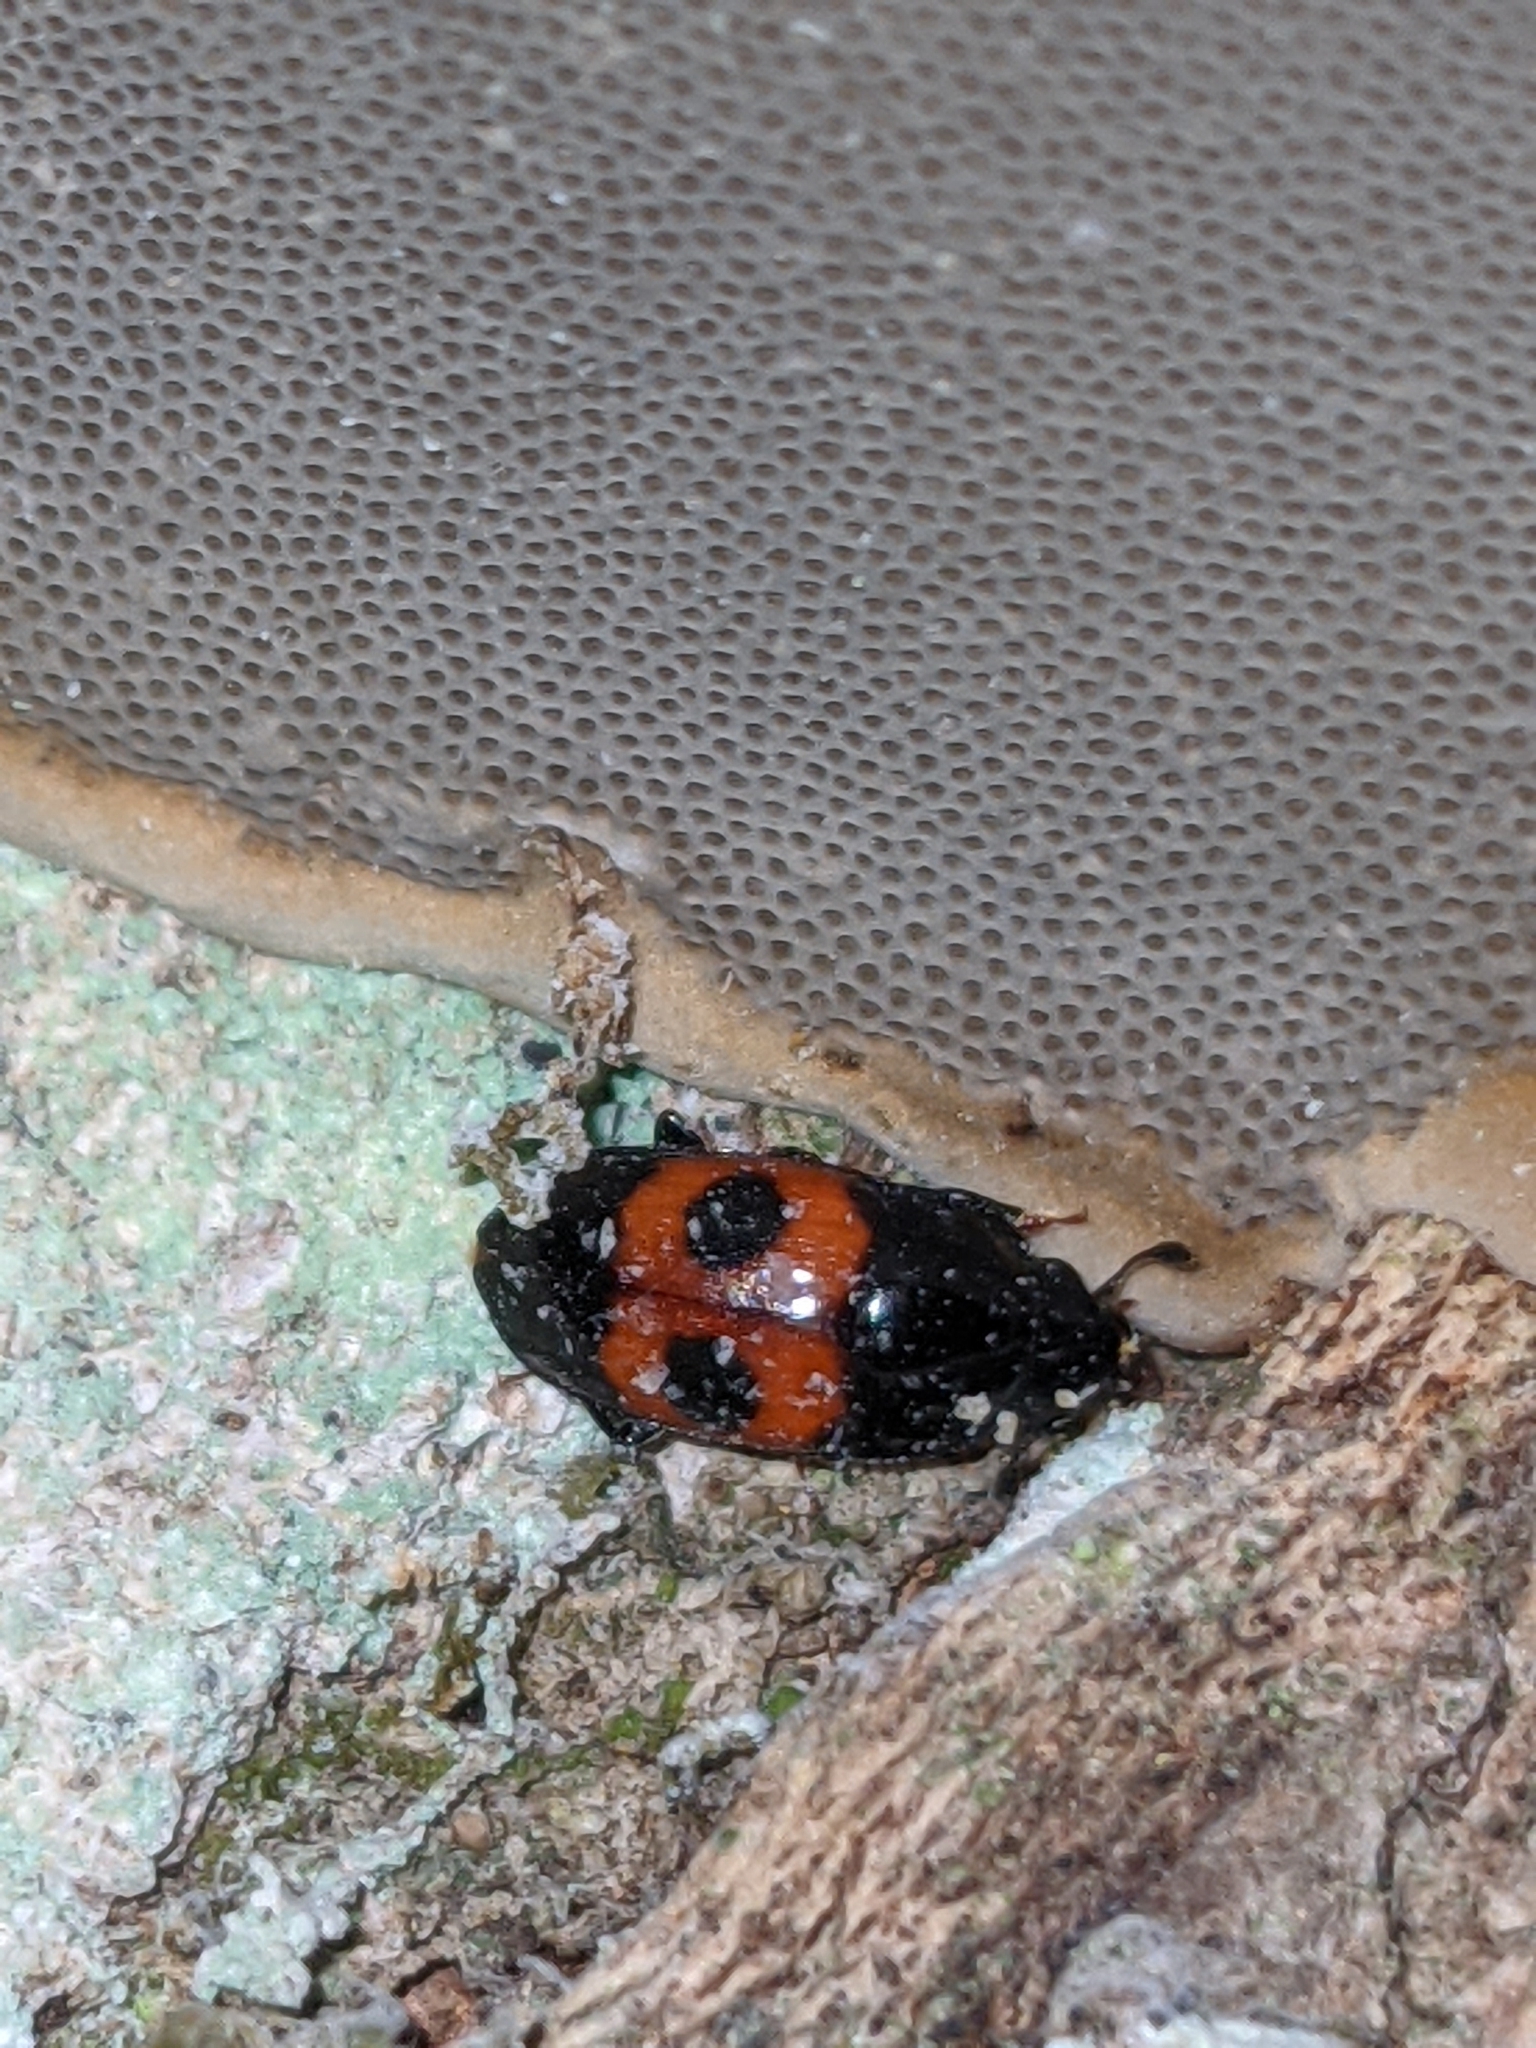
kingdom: Animalia
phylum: Arthropoda
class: Insecta
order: Coleoptera
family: Nitidulidae
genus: Glischrochilus
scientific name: Glischrochilus sanguinolentus
